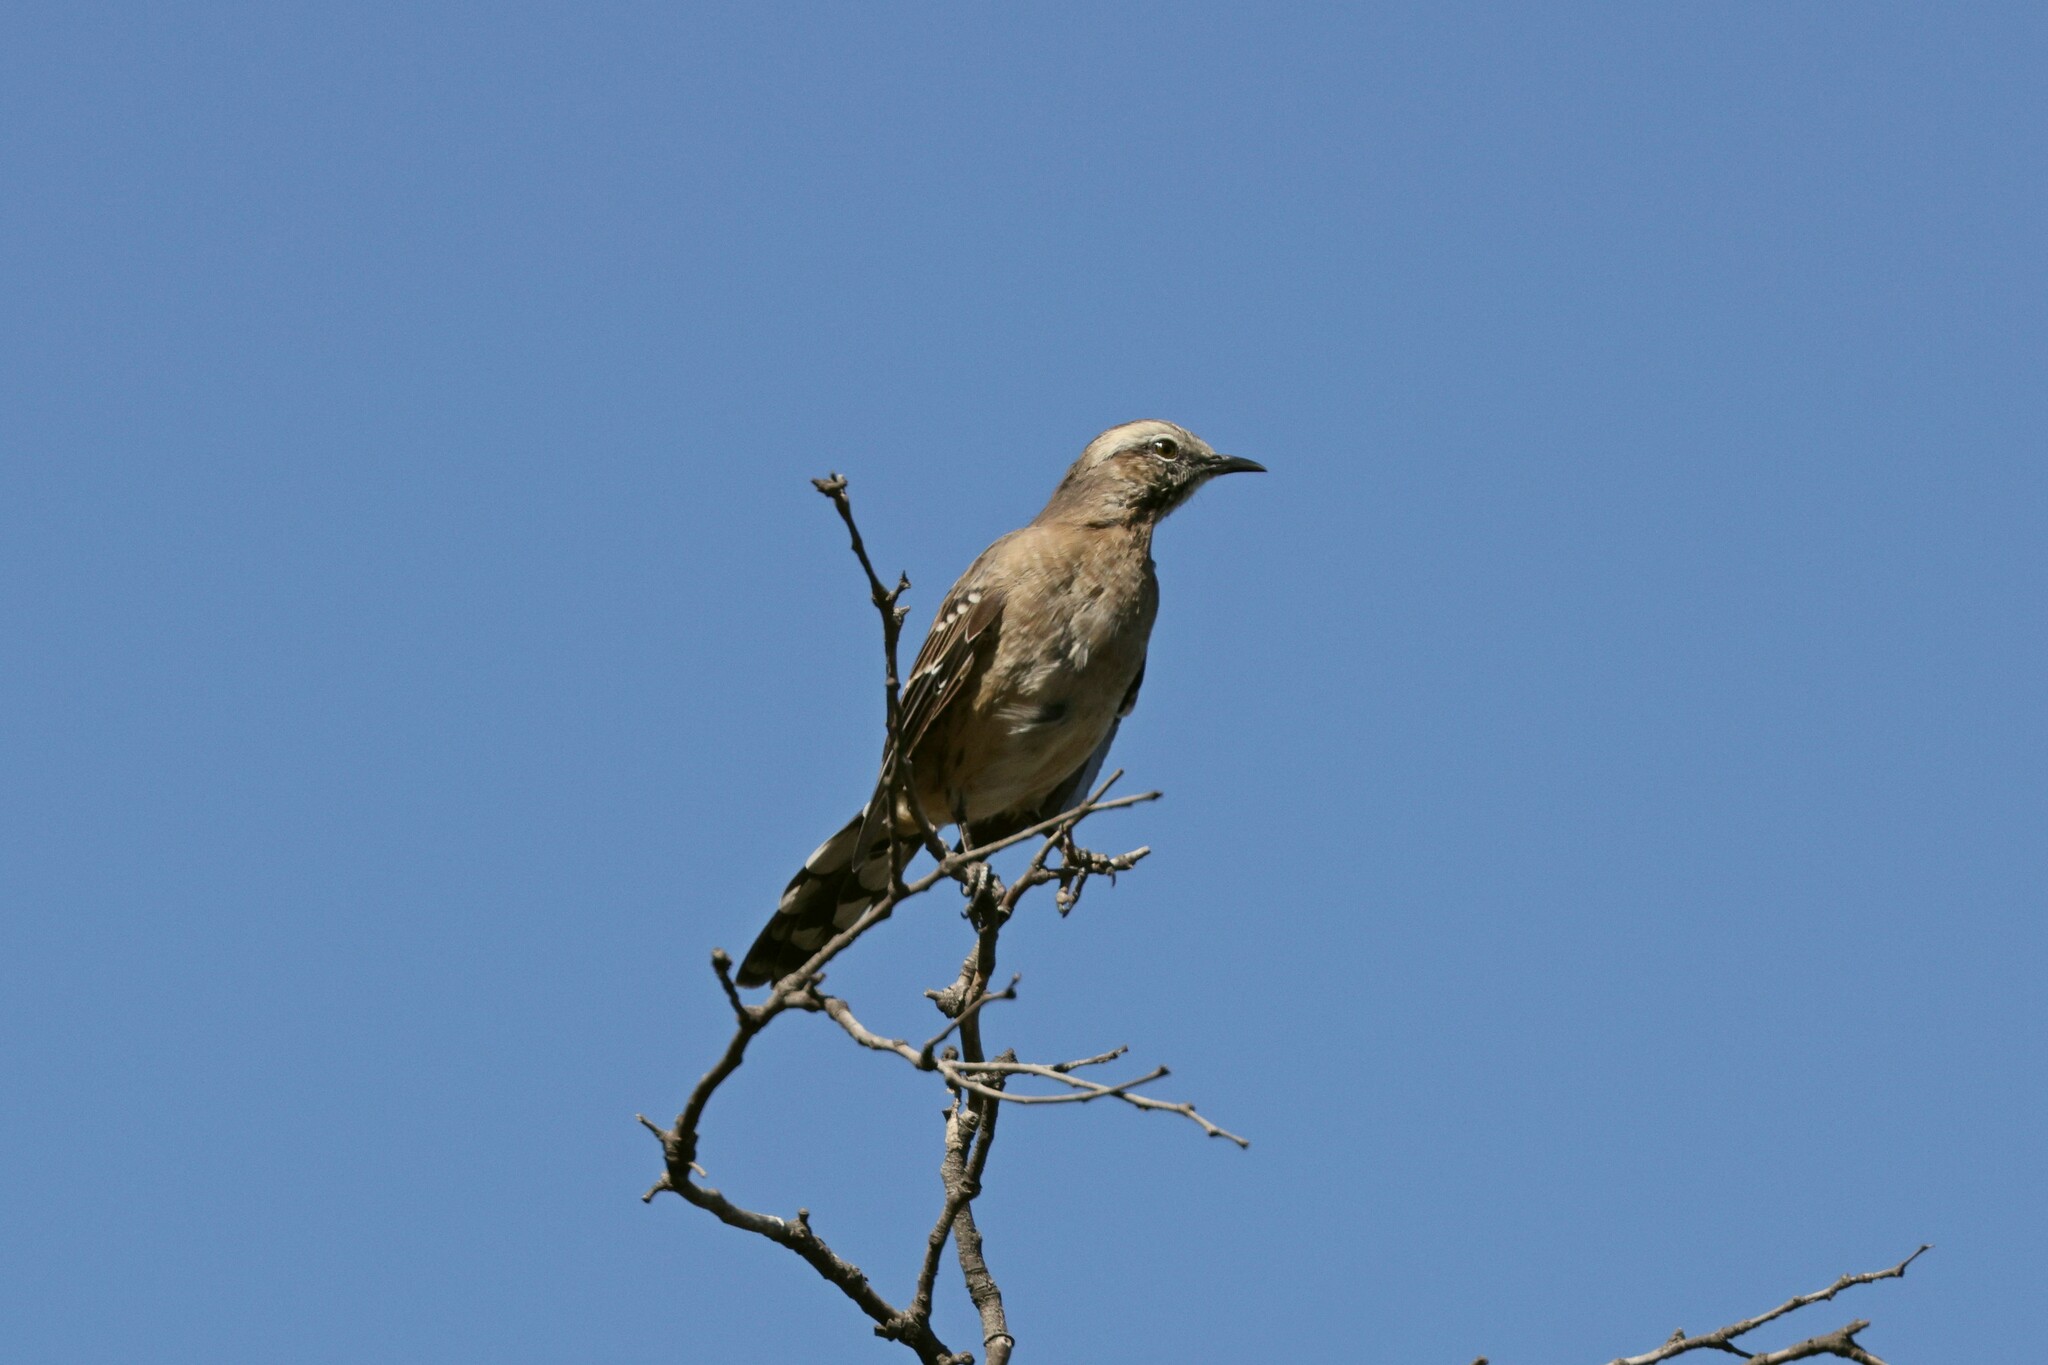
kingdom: Animalia
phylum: Chordata
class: Aves
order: Passeriformes
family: Mimidae
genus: Mimus
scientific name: Mimus thenca
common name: Chilean mockingbird
